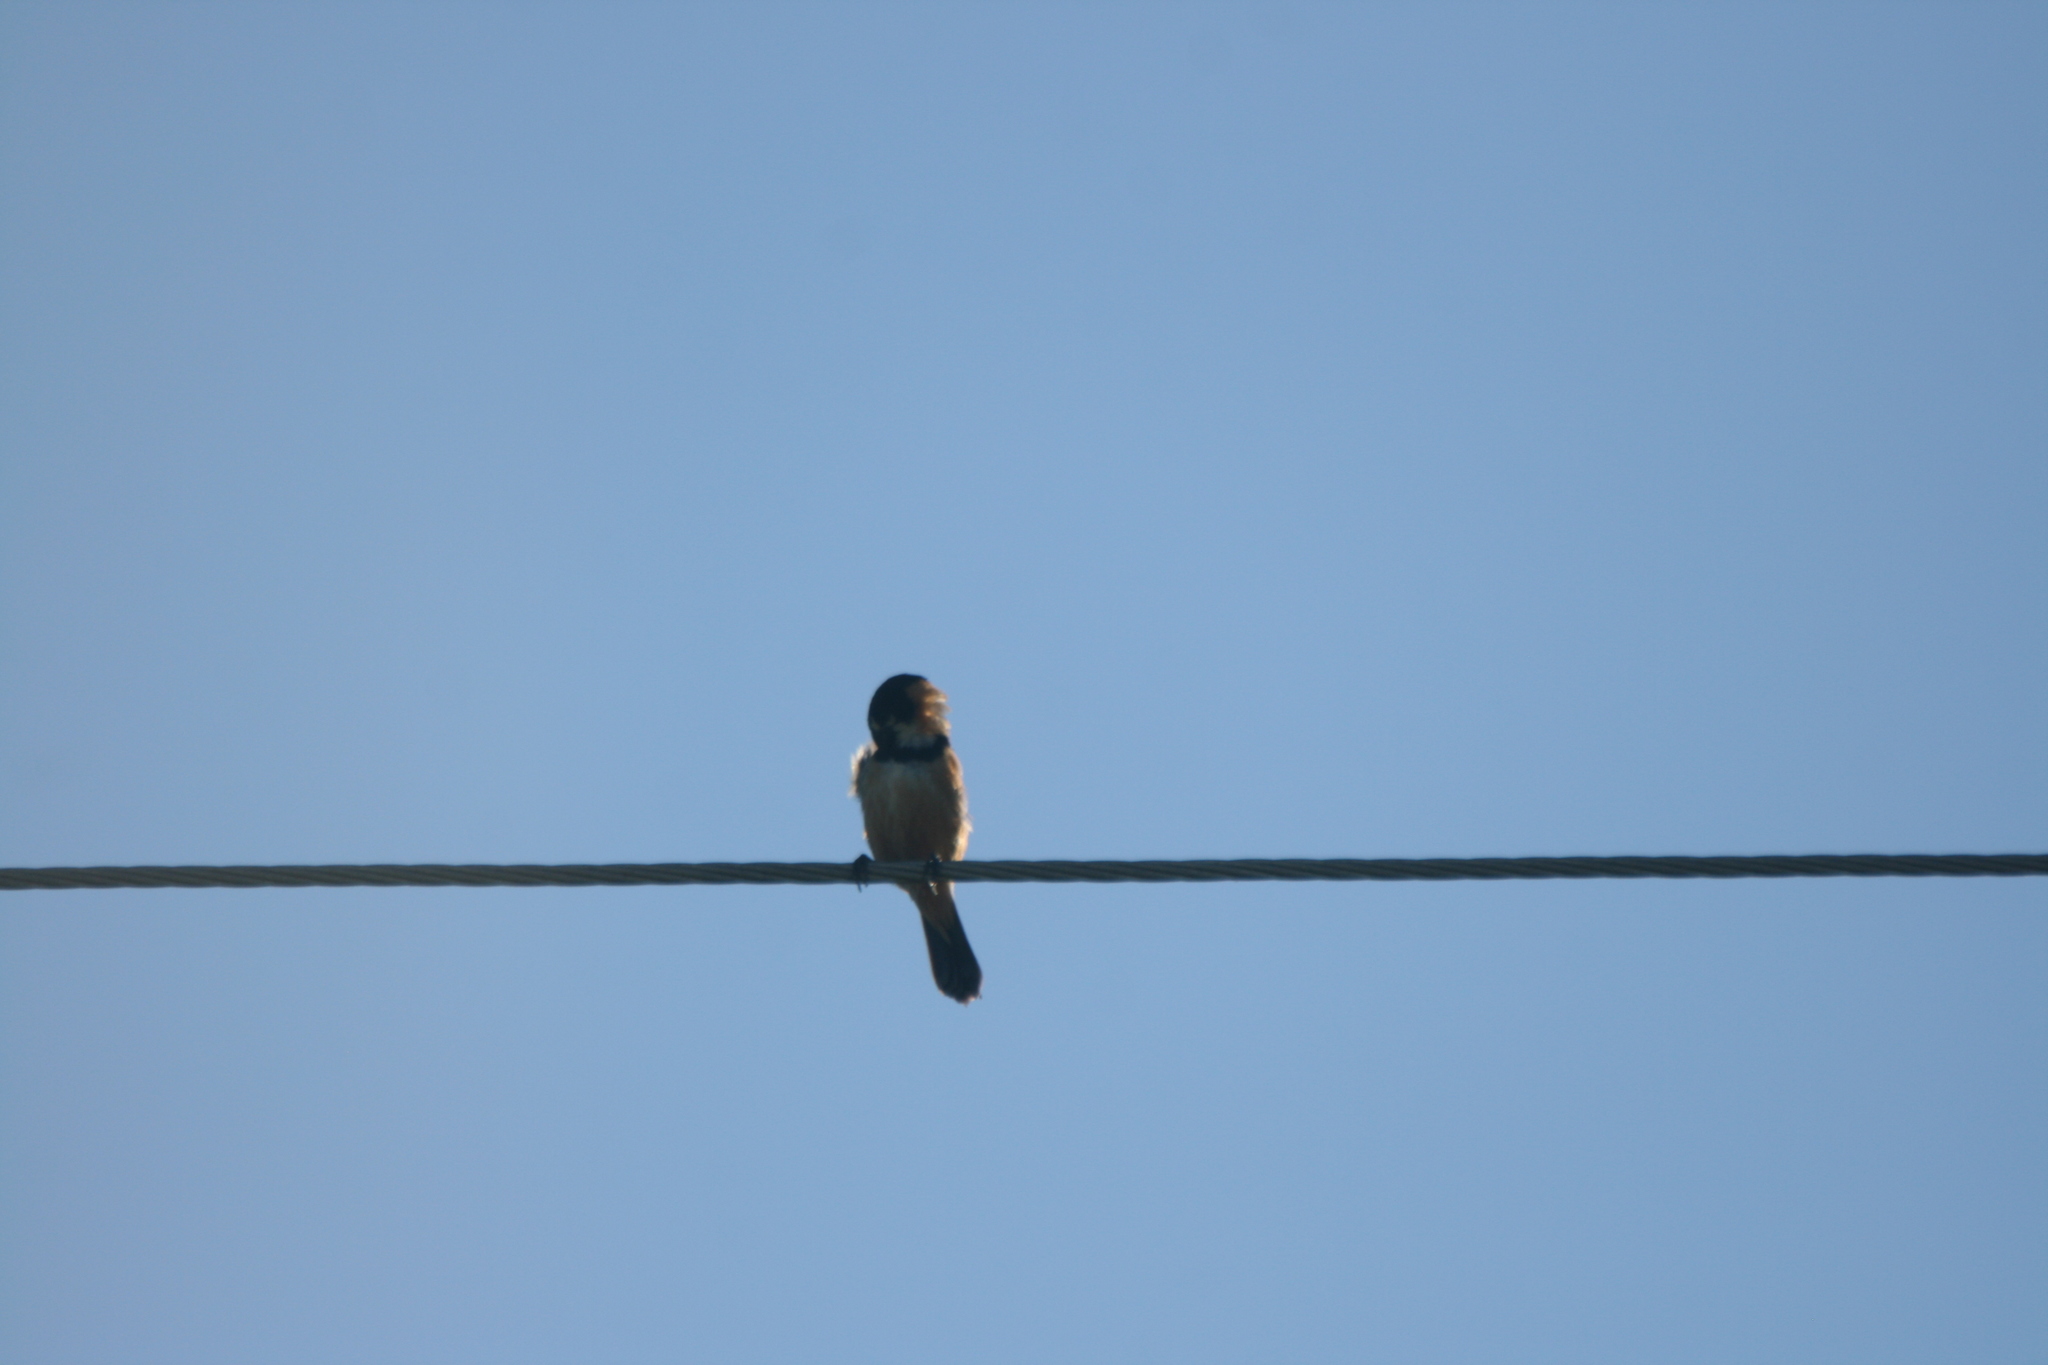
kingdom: Animalia
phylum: Chordata
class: Aves
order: Passeriformes
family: Thraupidae
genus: Sporophila
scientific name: Sporophila collaris
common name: Rusty-collared seedeater
